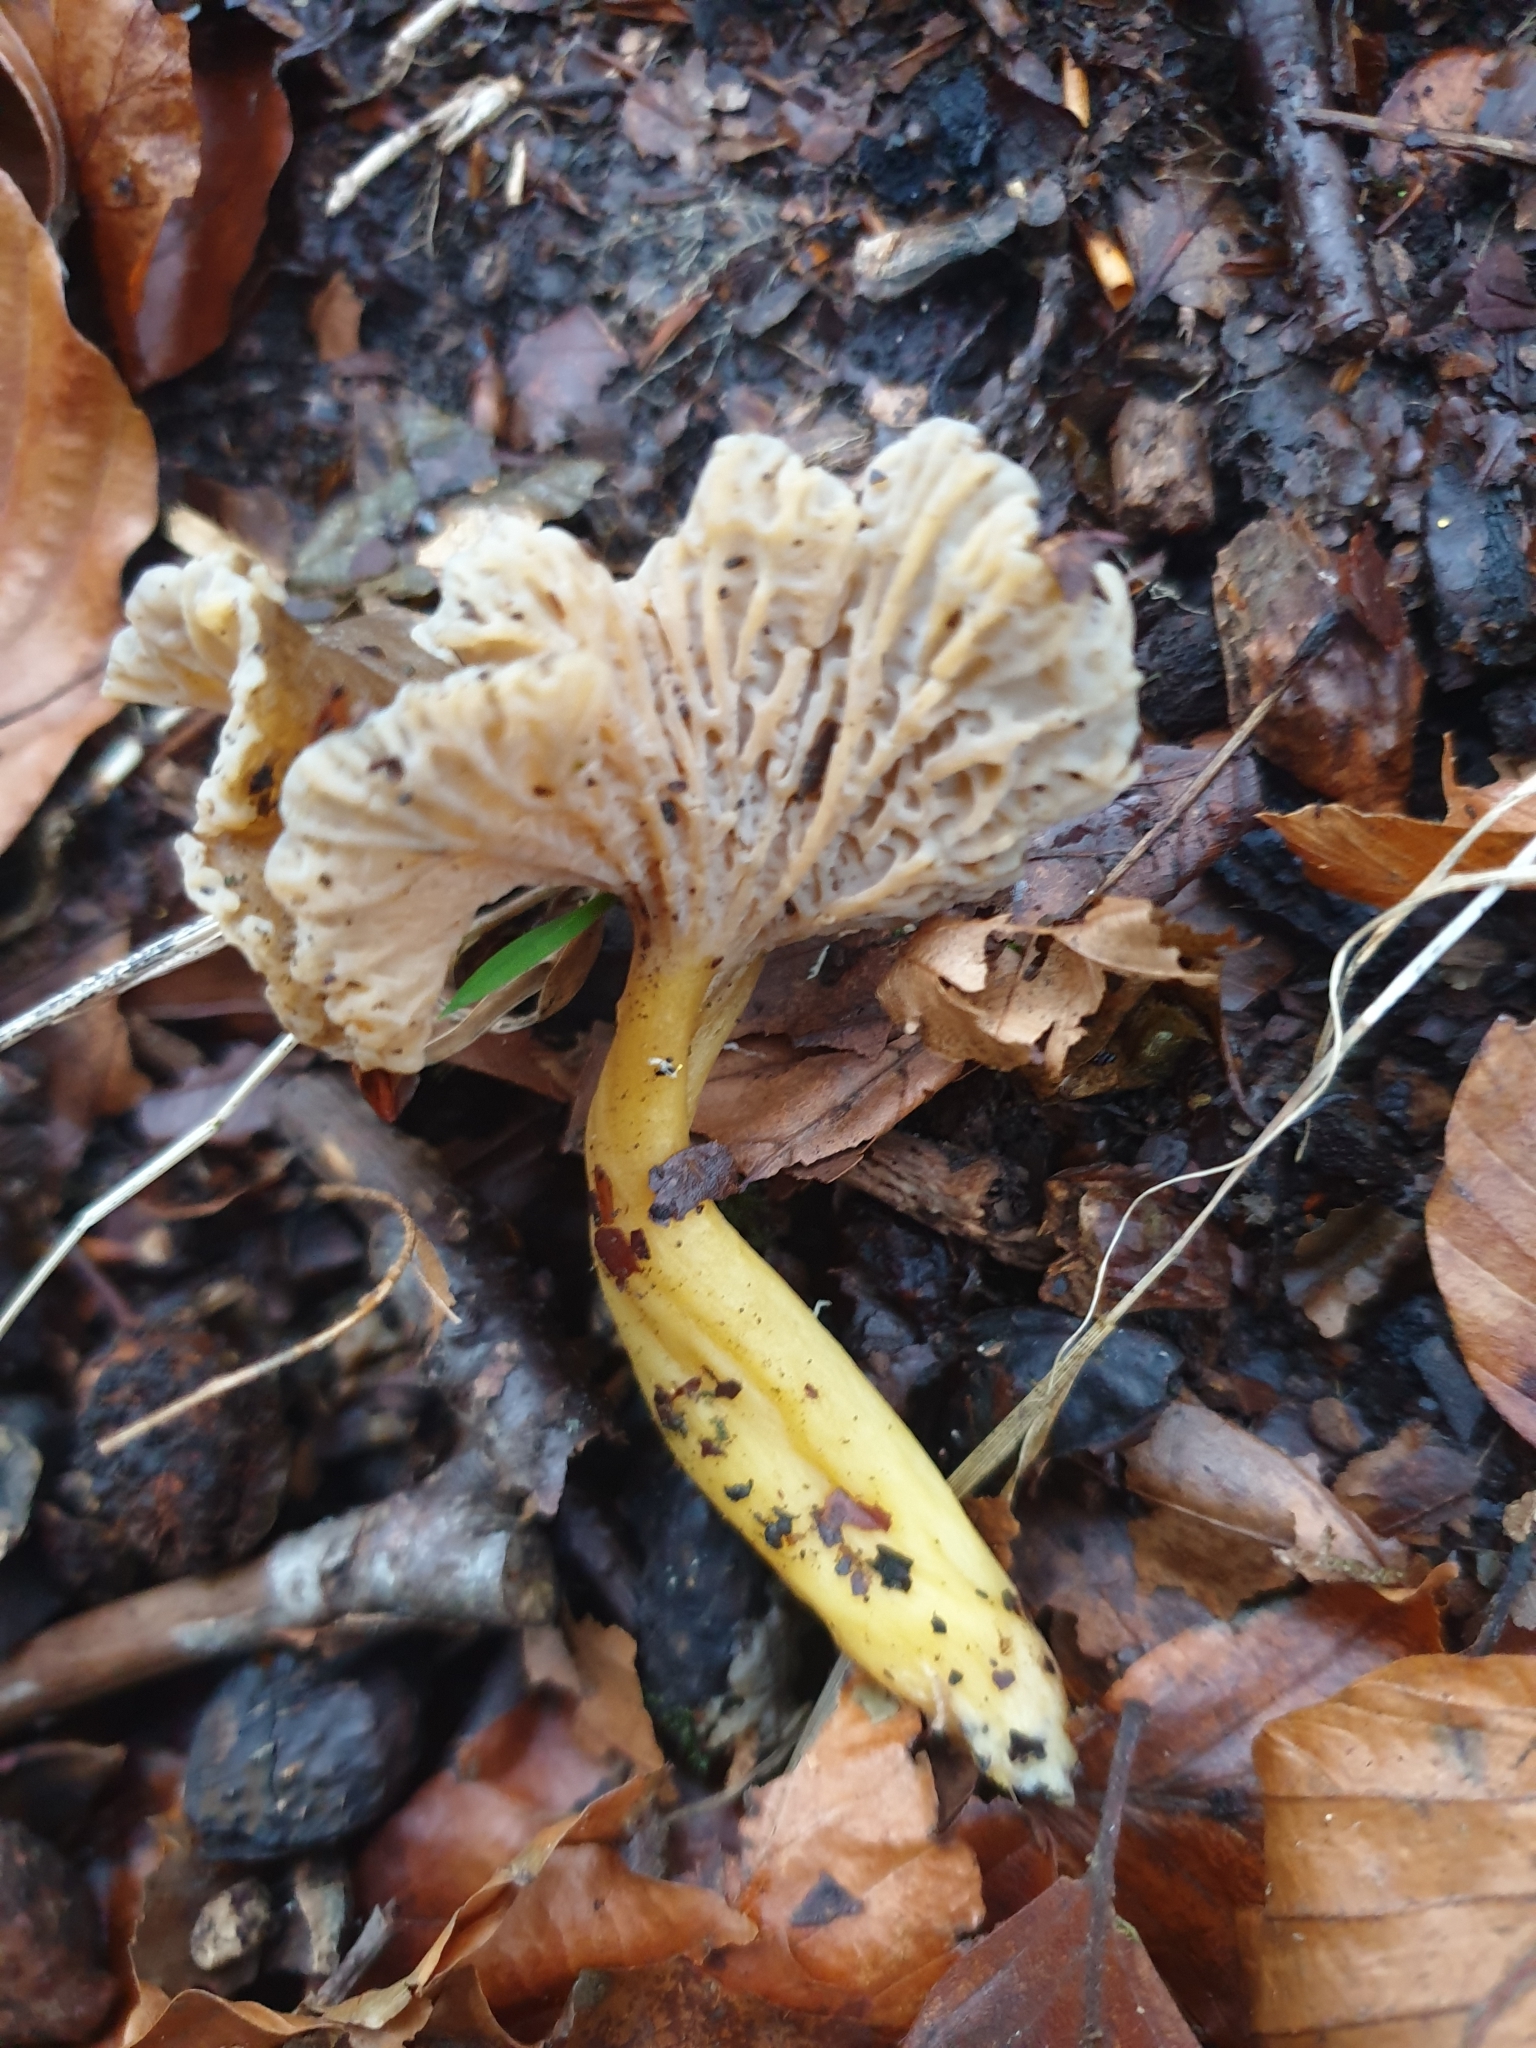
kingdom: Fungi
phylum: Basidiomycota
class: Agaricomycetes
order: Cantharellales
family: Hydnaceae
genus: Craterellus
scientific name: Craterellus tubaeformis
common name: Yellowfoot
